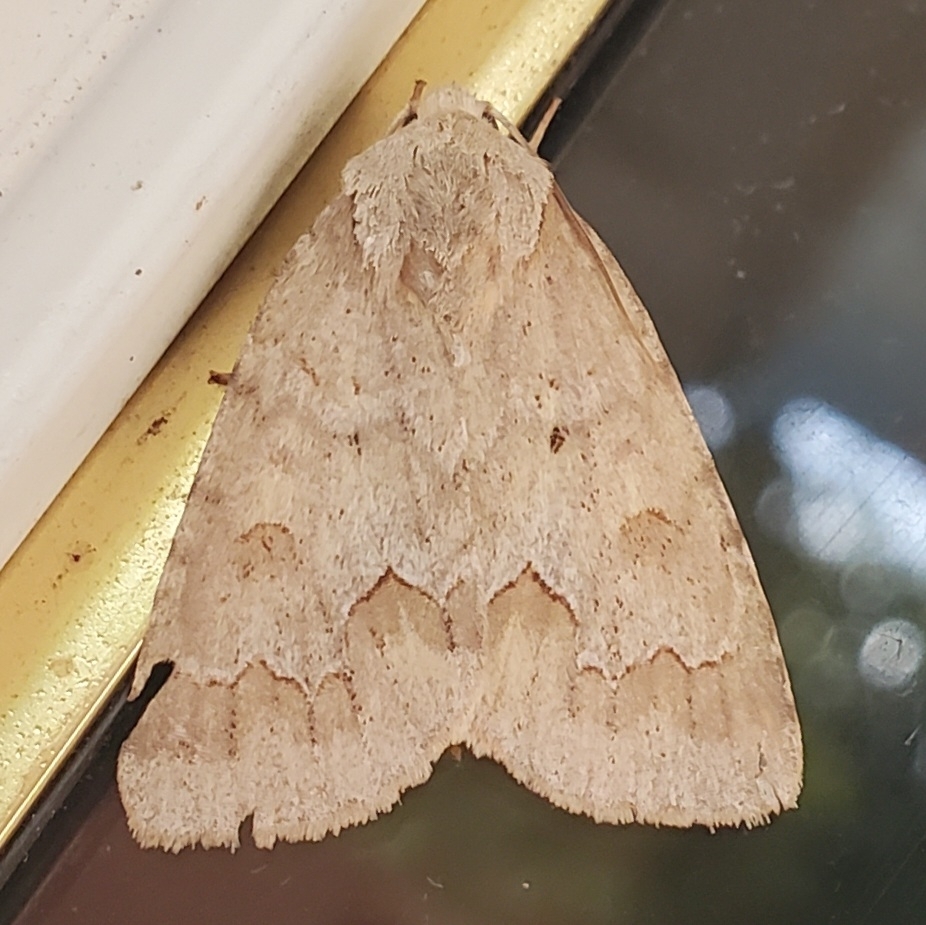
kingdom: Animalia
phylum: Arthropoda
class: Insecta
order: Lepidoptera
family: Noctuidae
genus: Acronicta
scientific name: Acronicta betulae
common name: Birch dagger moth
